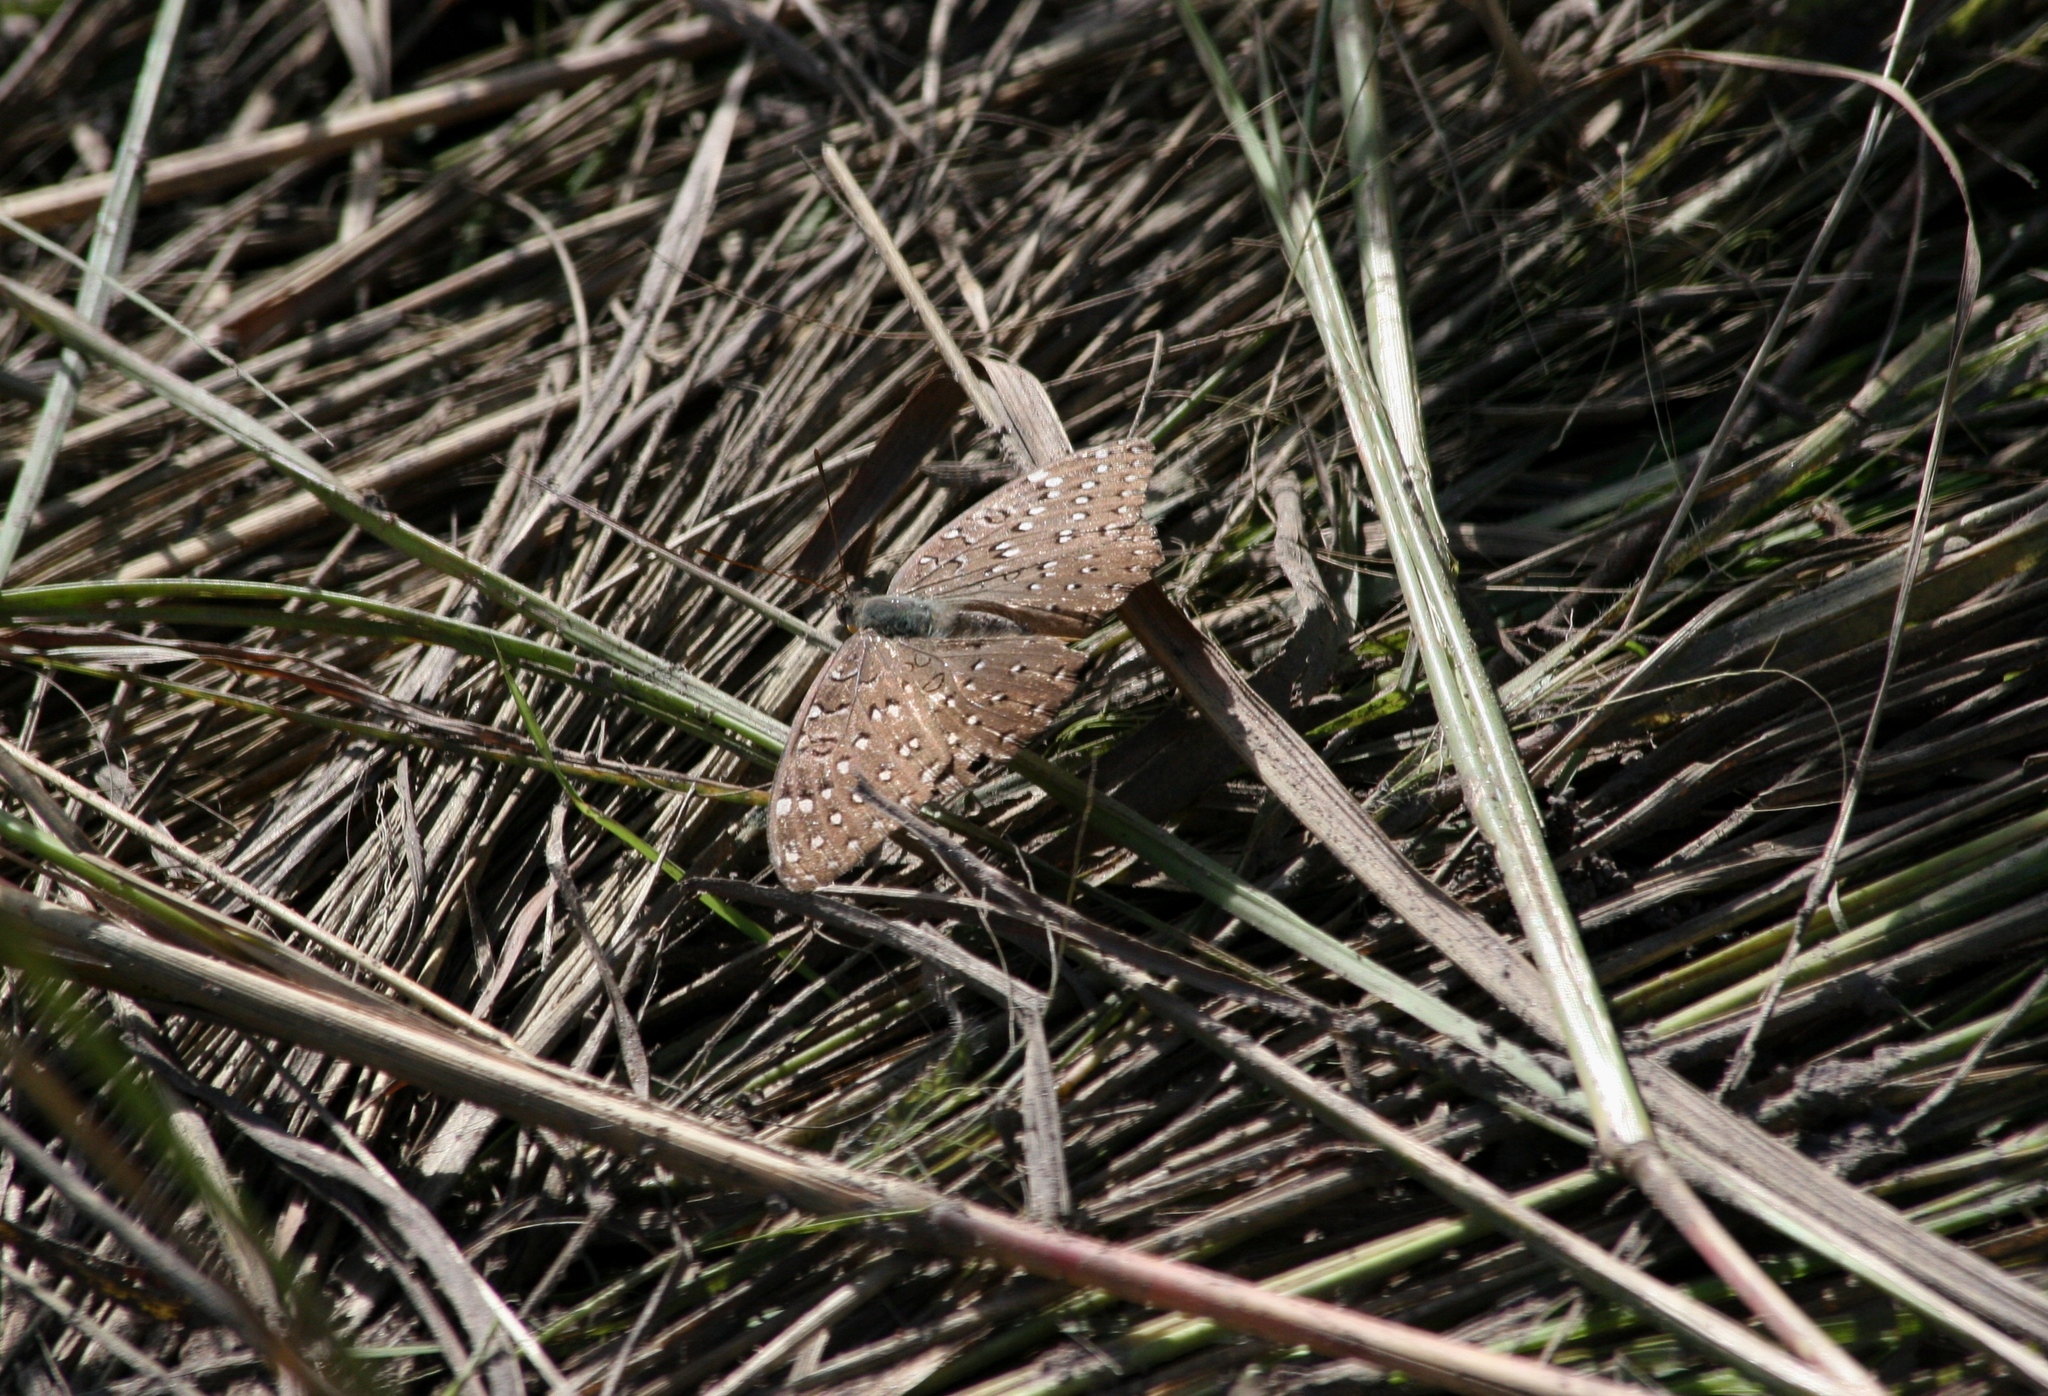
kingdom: Animalia
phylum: Arthropoda
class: Insecta
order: Lepidoptera
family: Nymphalidae
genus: Hamanumida
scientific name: Hamanumida daedalus
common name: Guinea-fowl butterfly
